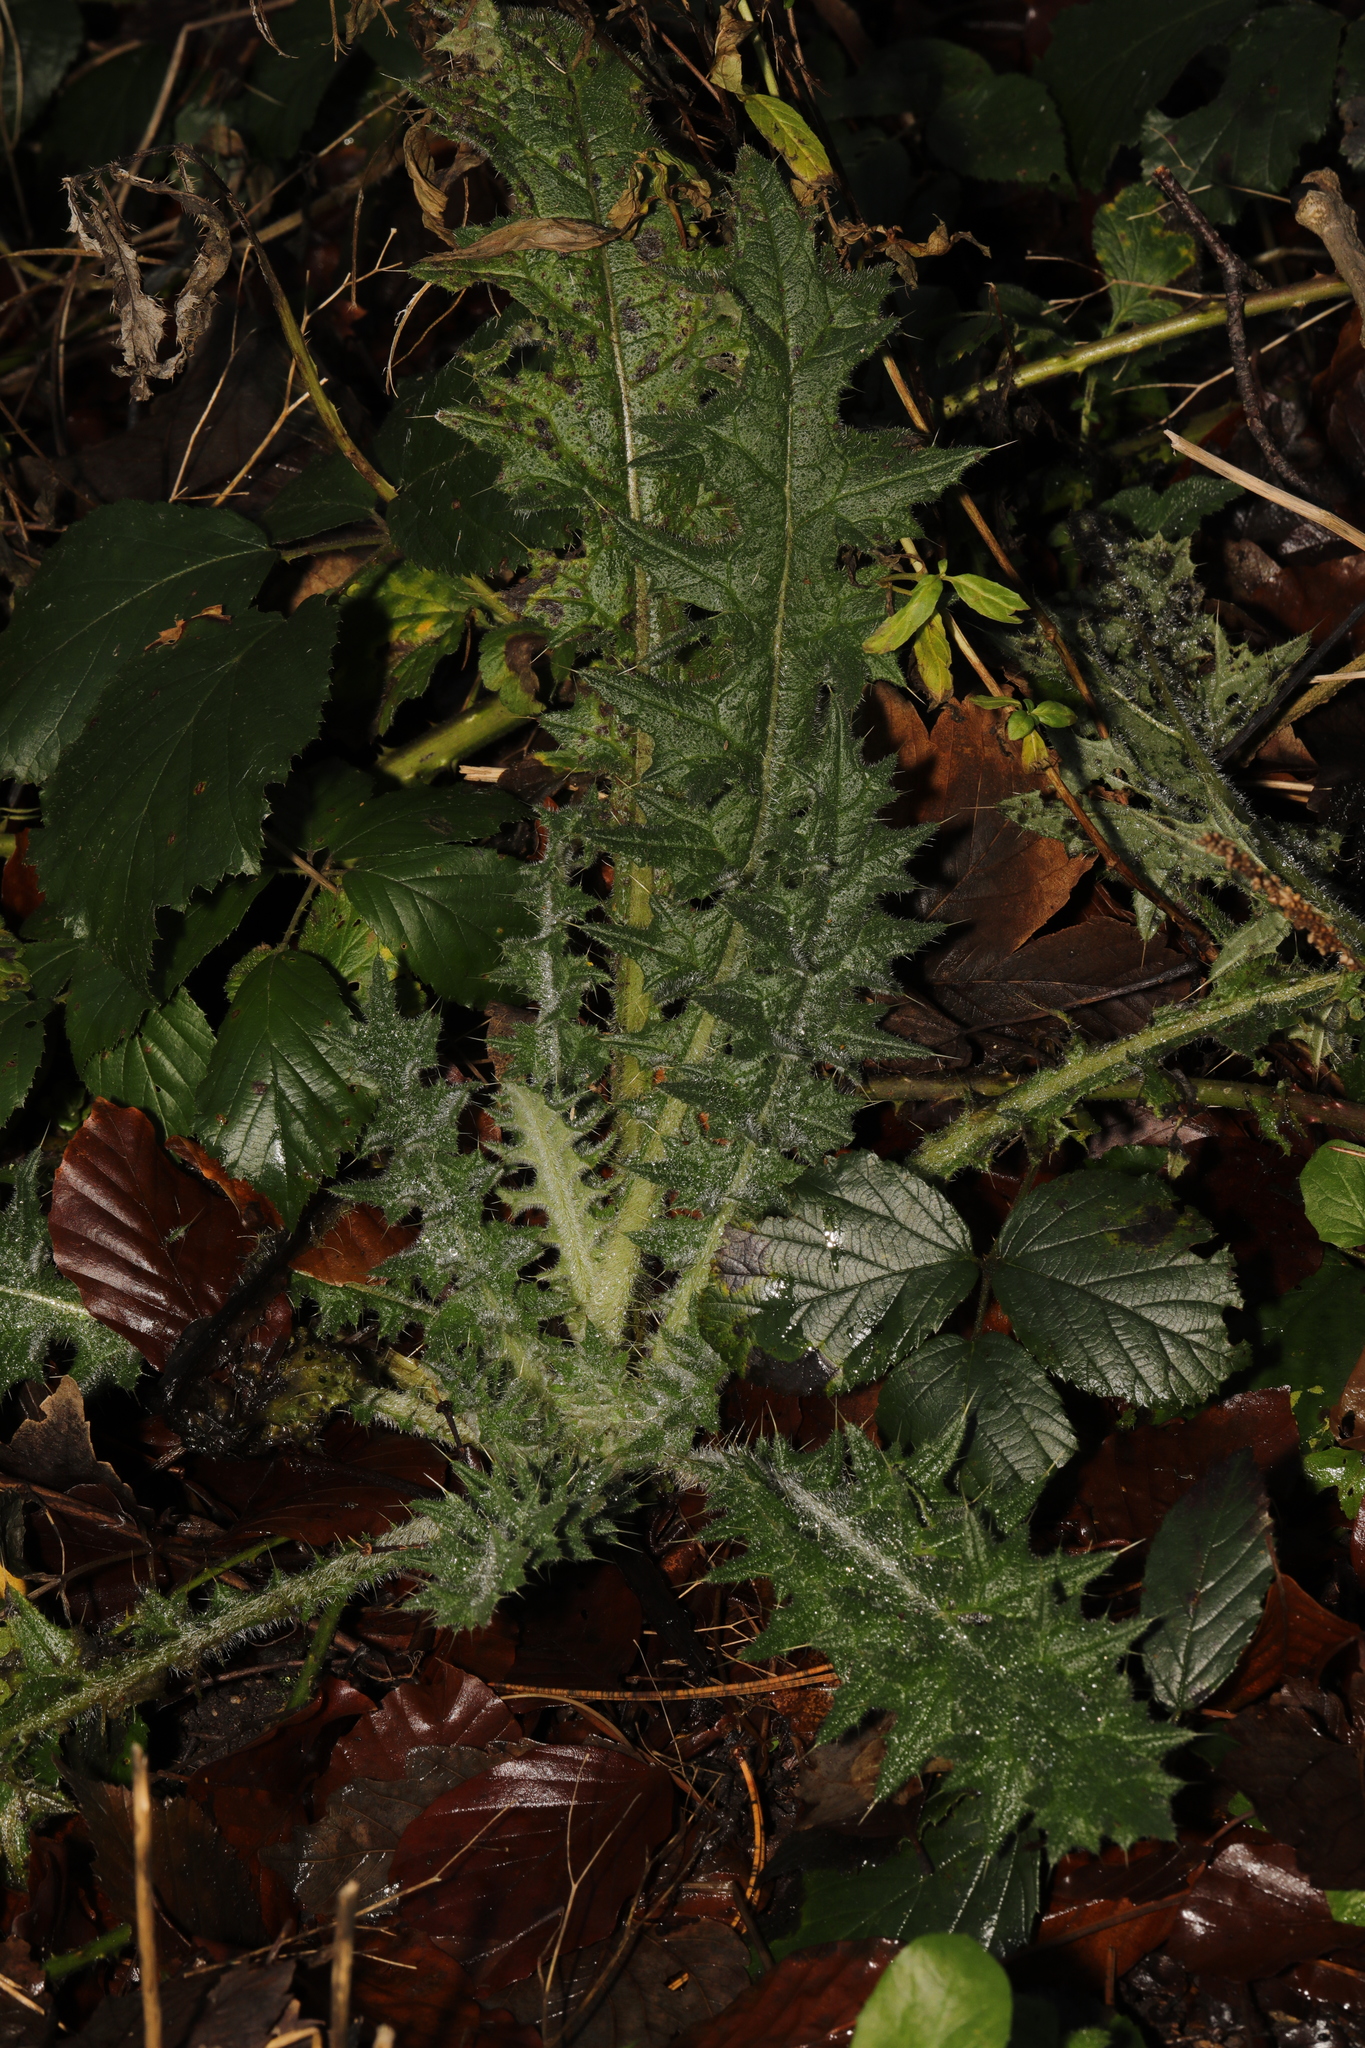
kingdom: Plantae
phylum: Tracheophyta
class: Magnoliopsida
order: Asterales
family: Asteraceae
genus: Cirsium
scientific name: Cirsium vulgare
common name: Bull thistle
